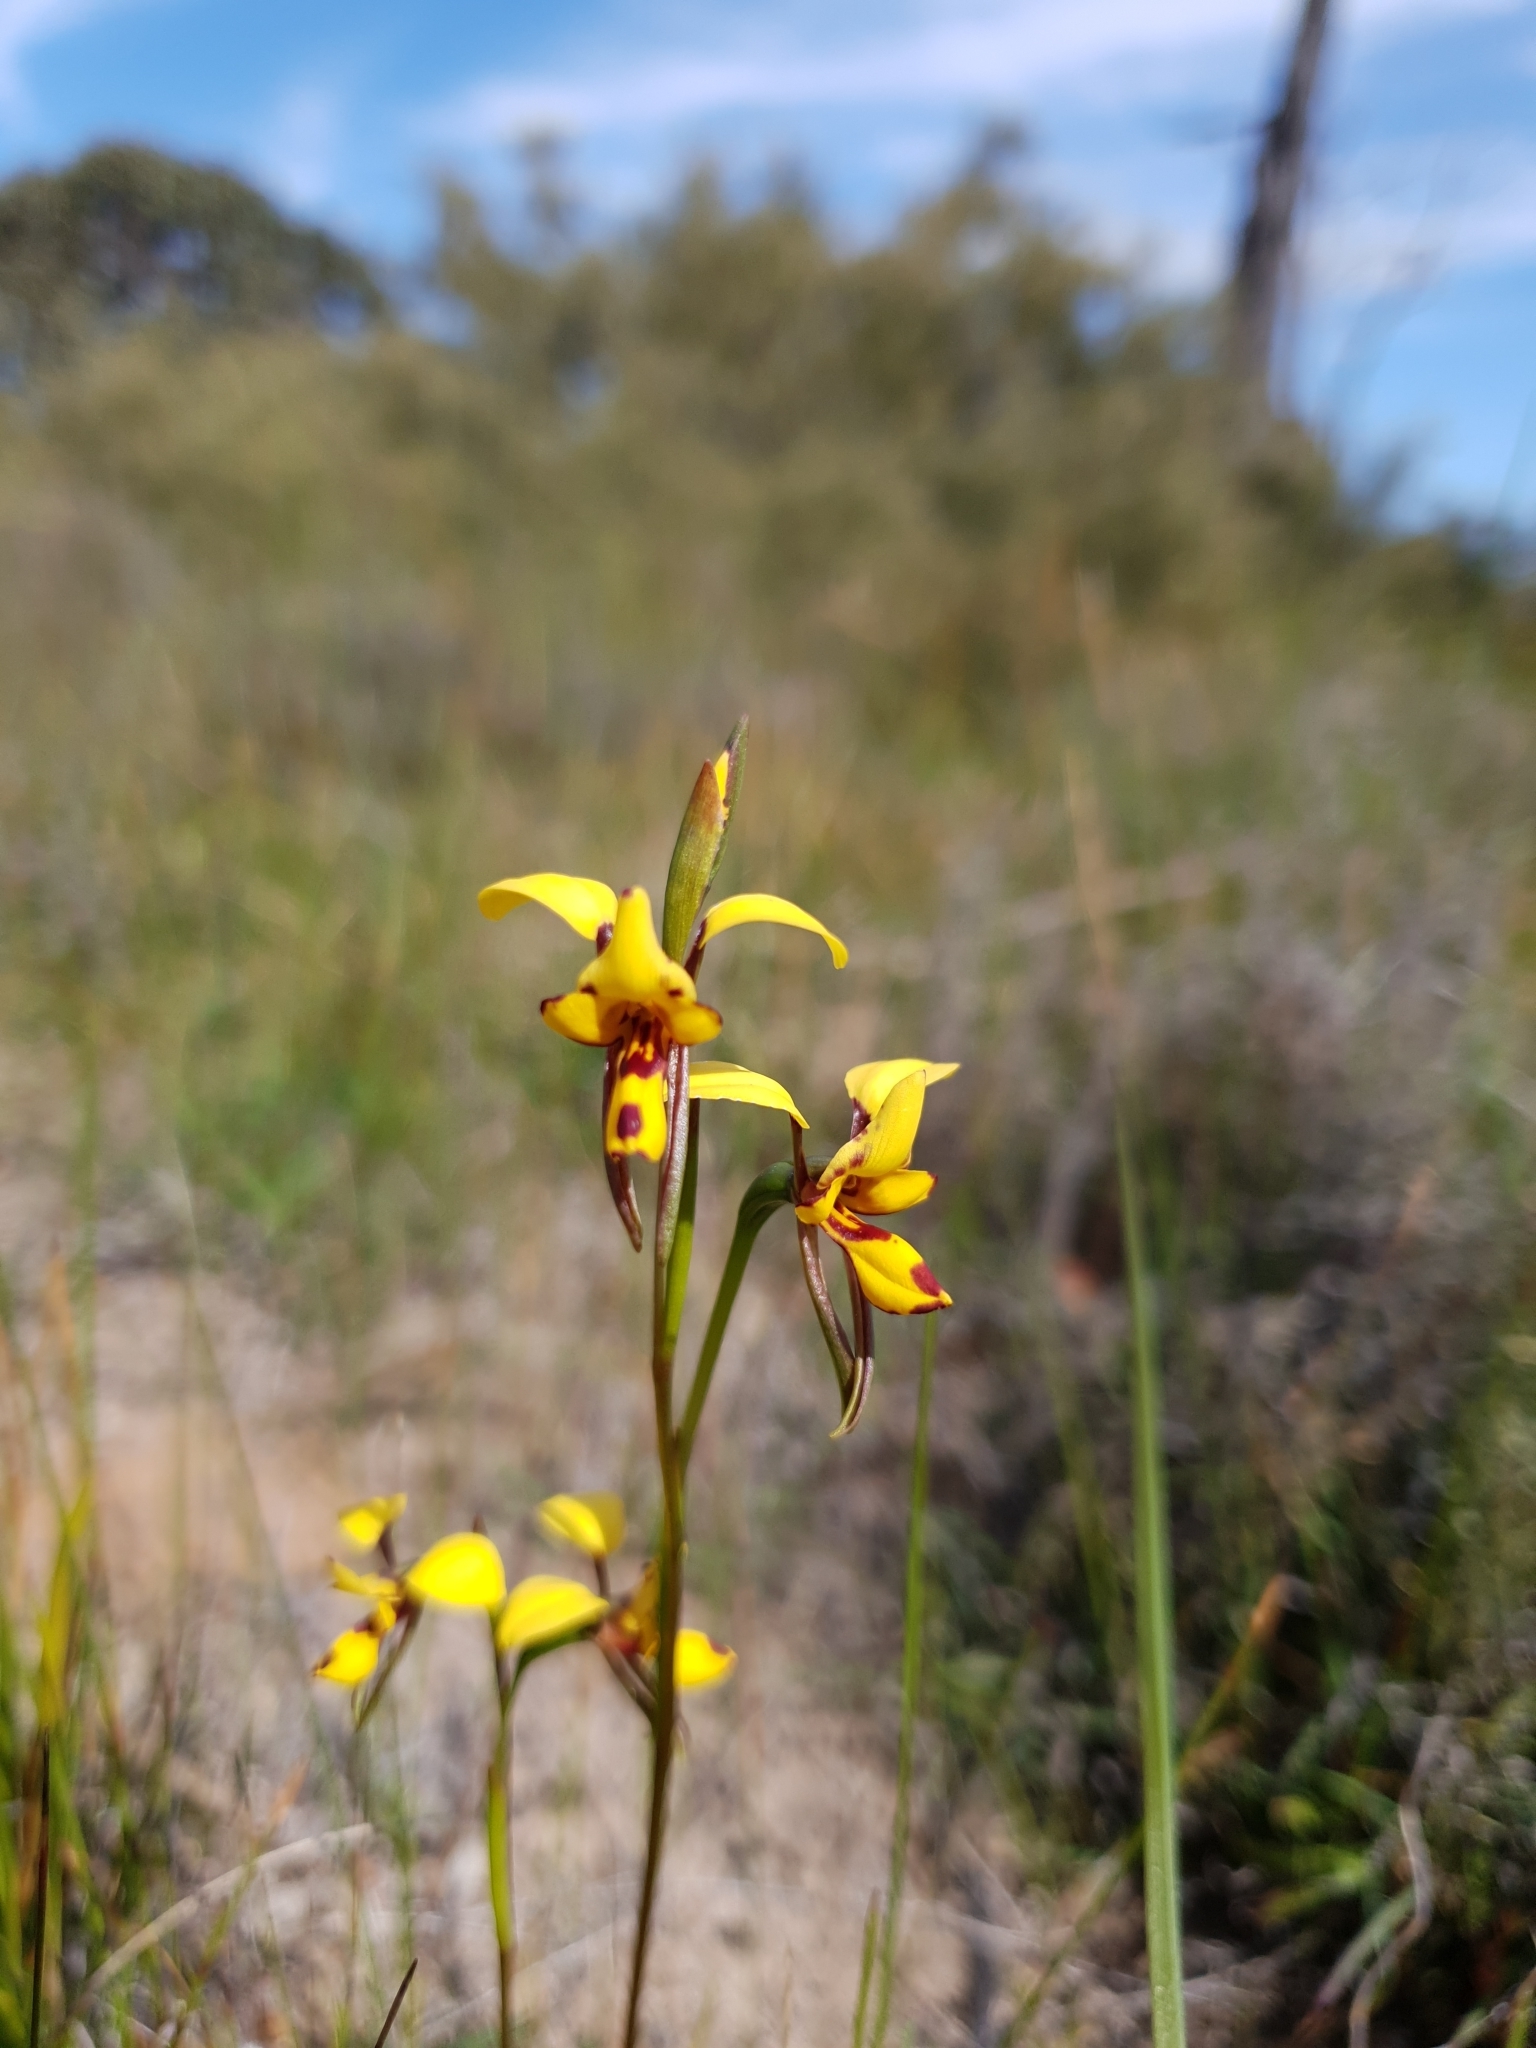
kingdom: Plantae
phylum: Tracheophyta
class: Liliopsida
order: Asparagales
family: Orchidaceae
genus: Diuris
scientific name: Diuris laxiflora
